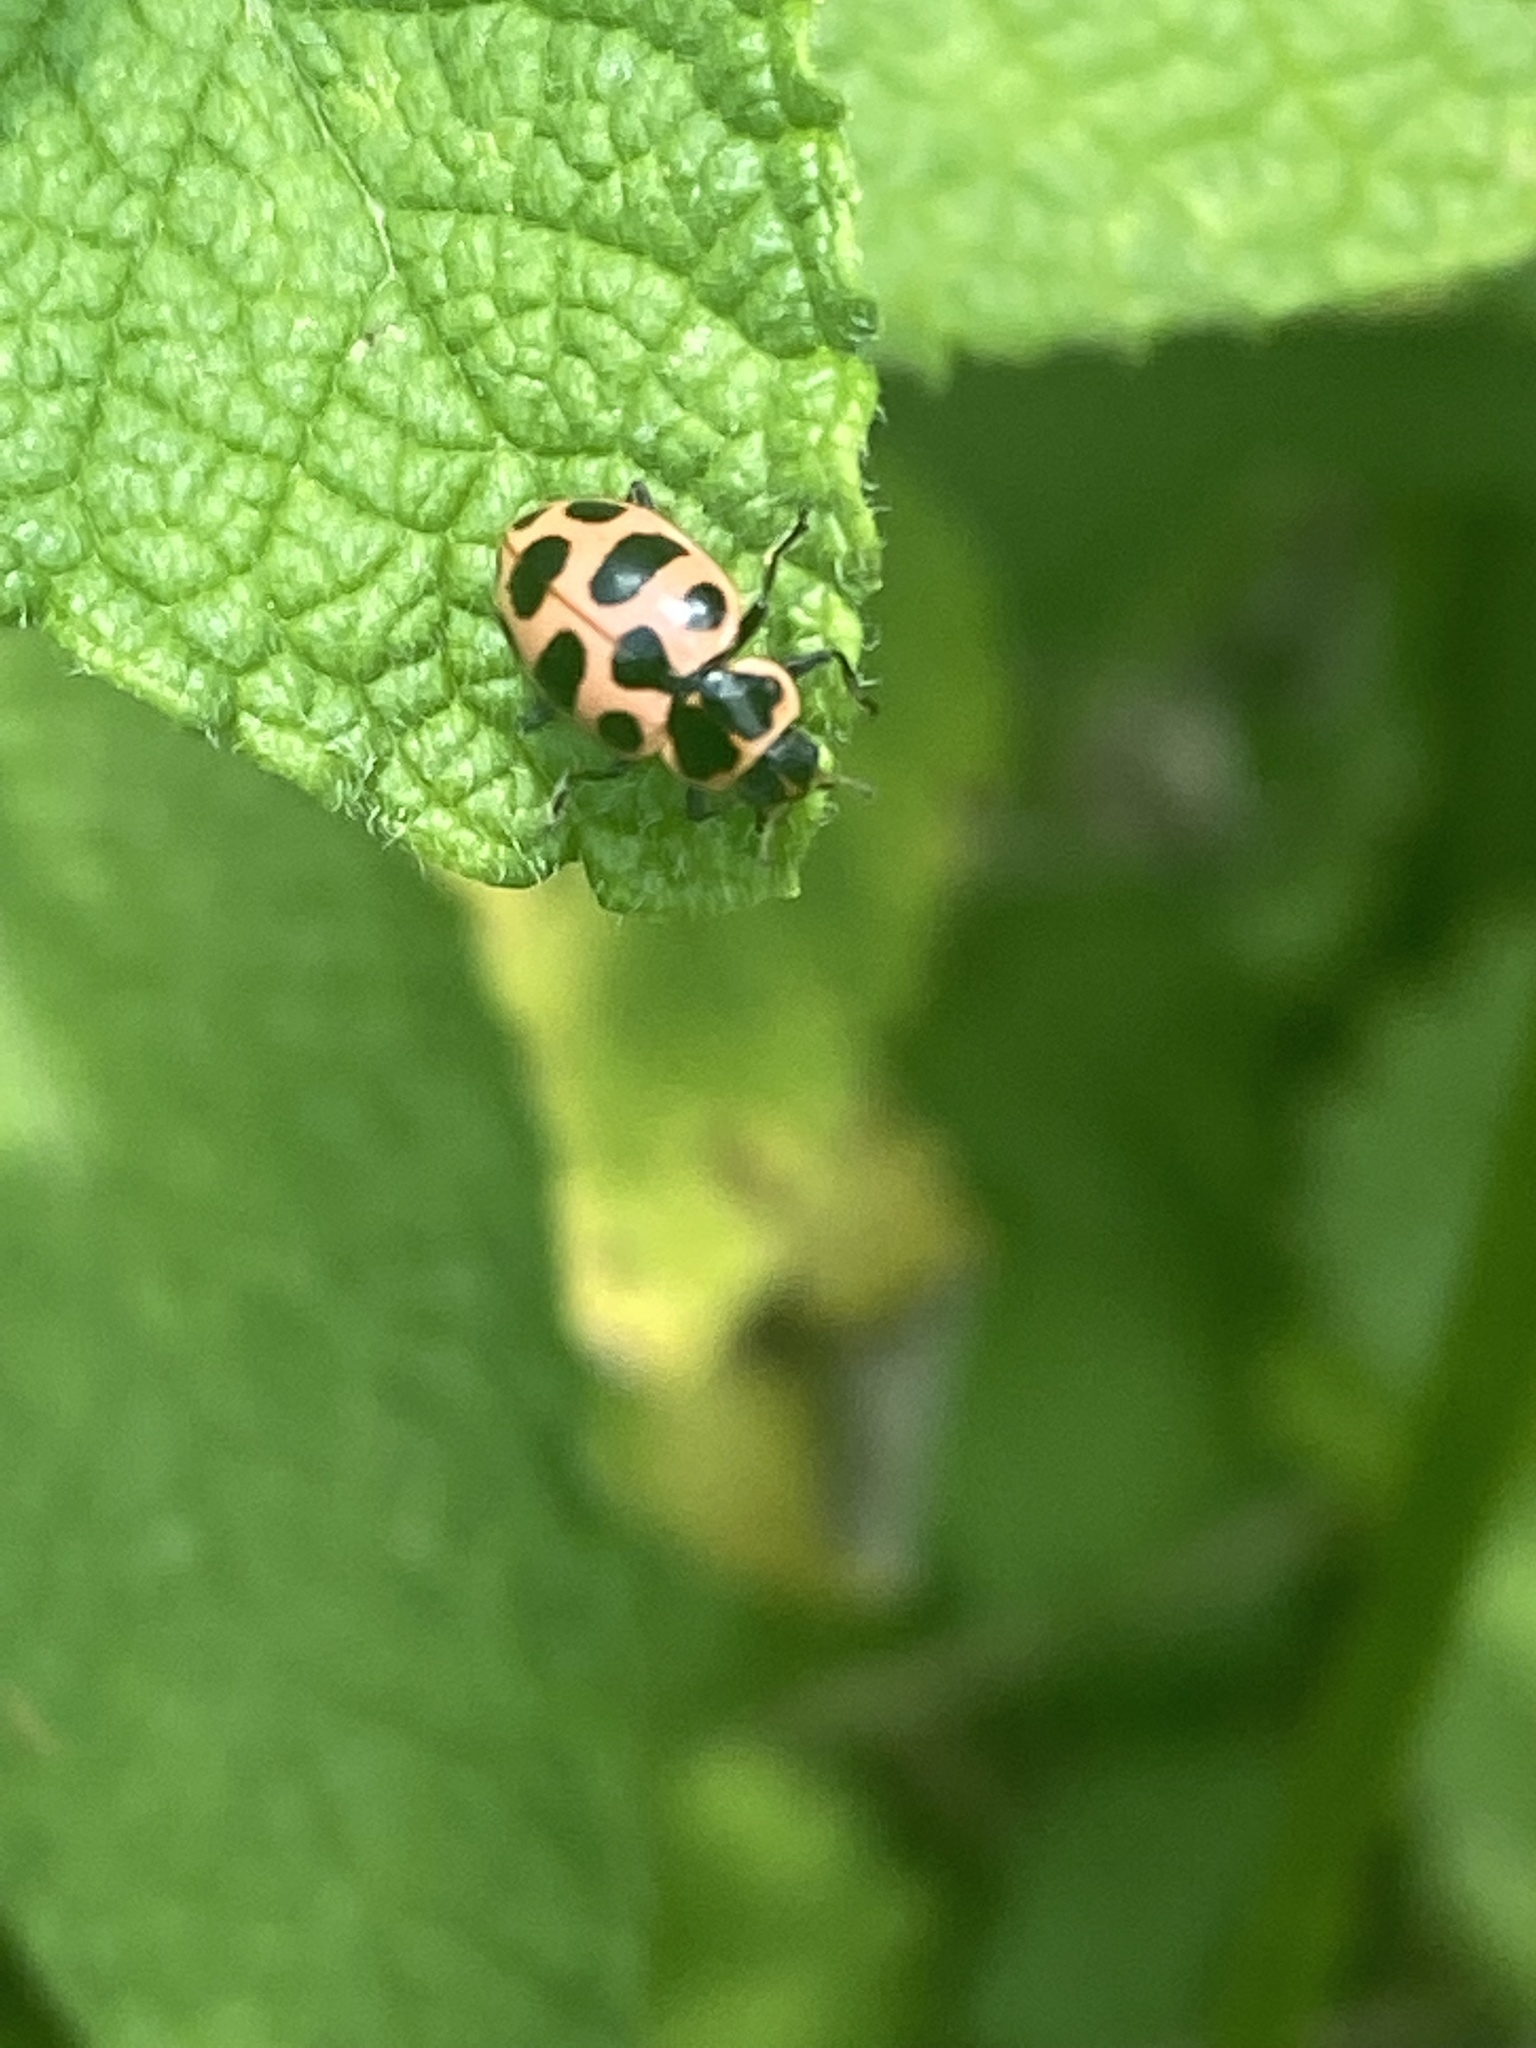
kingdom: Animalia
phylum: Arthropoda
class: Insecta
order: Coleoptera
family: Coccinellidae
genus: Coleomegilla
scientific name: Coleomegilla maculata
